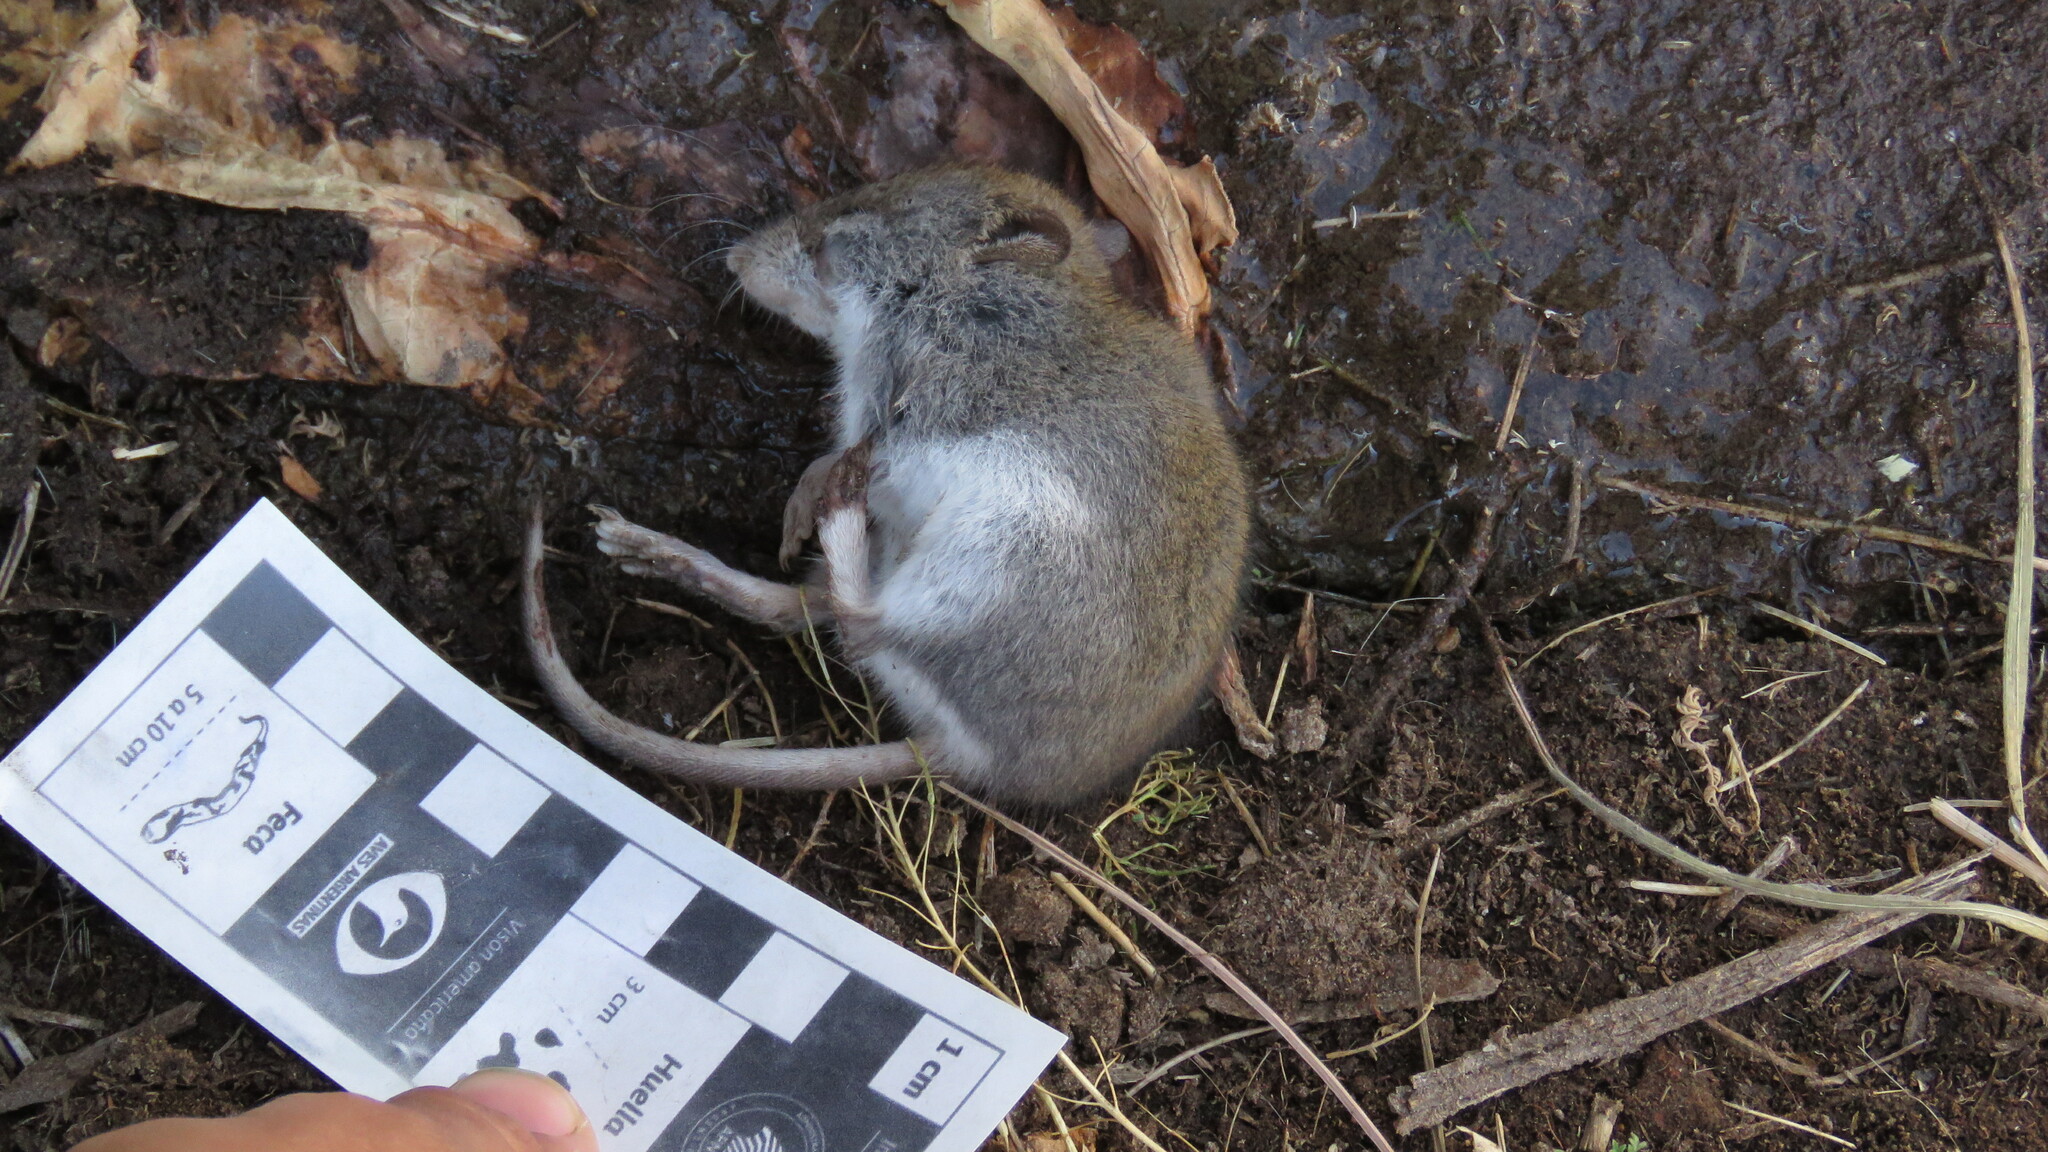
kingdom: Animalia
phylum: Chordata
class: Mammalia
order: Rodentia
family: Cricetidae
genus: Abrothrix
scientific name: Abrothrix olivaceus
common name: Olive-colored akodont
